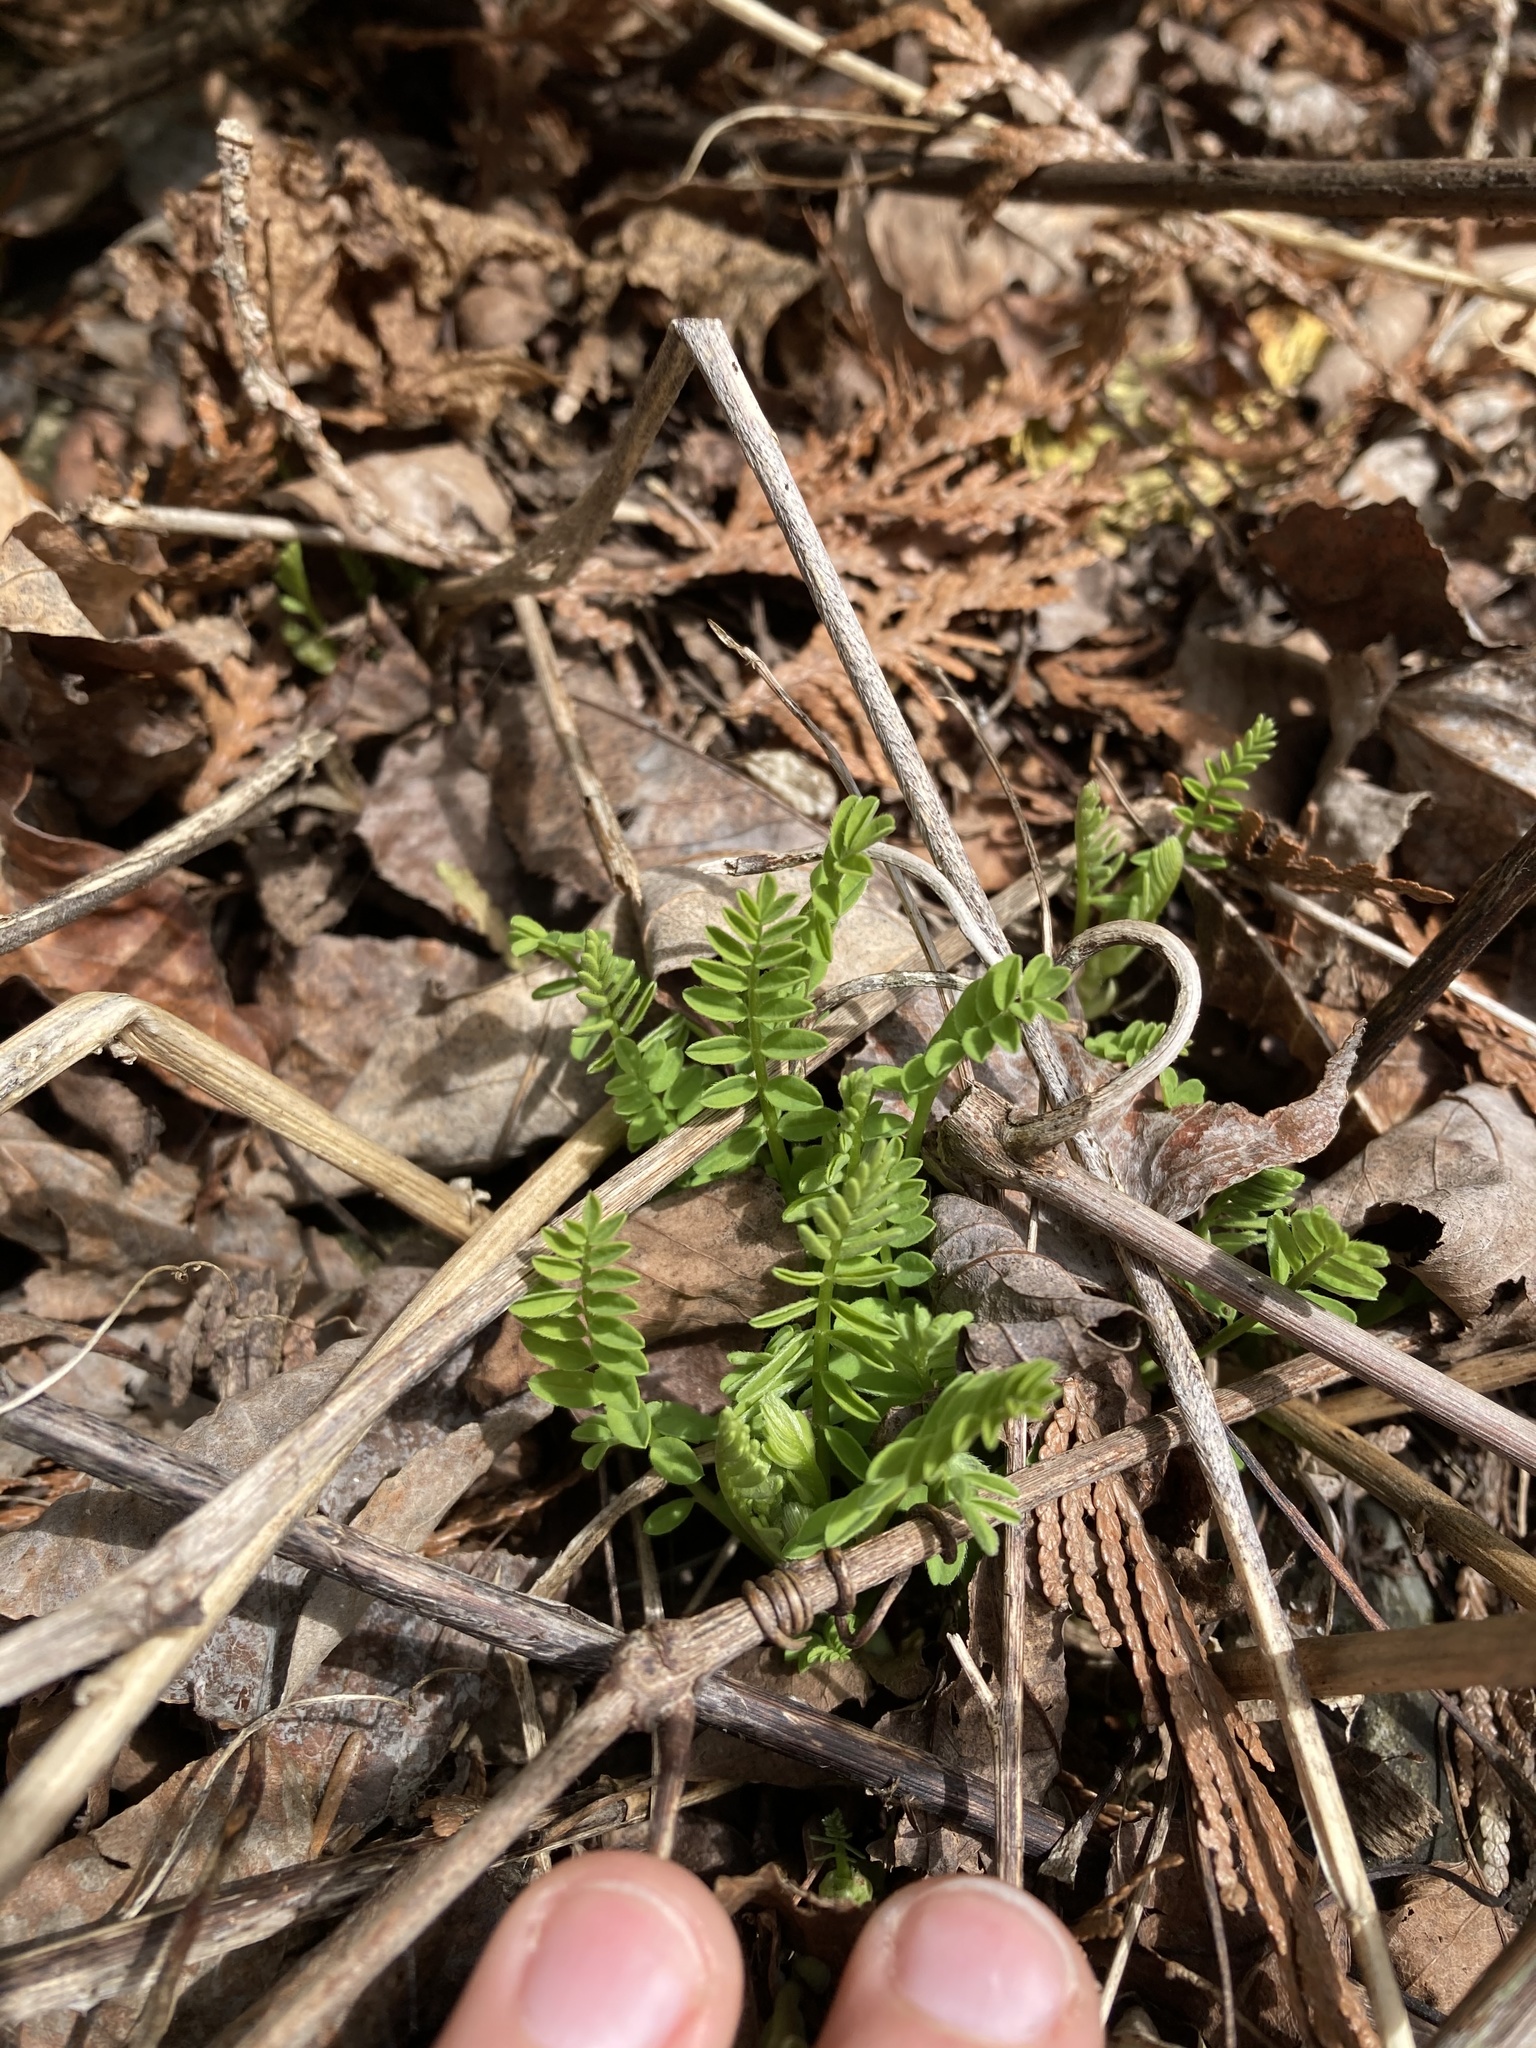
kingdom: Plantae
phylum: Tracheophyta
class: Magnoliopsida
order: Fabales
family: Fabaceae
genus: Astragalus
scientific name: Astragalus neglectus
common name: Cooper's milk-vetch
